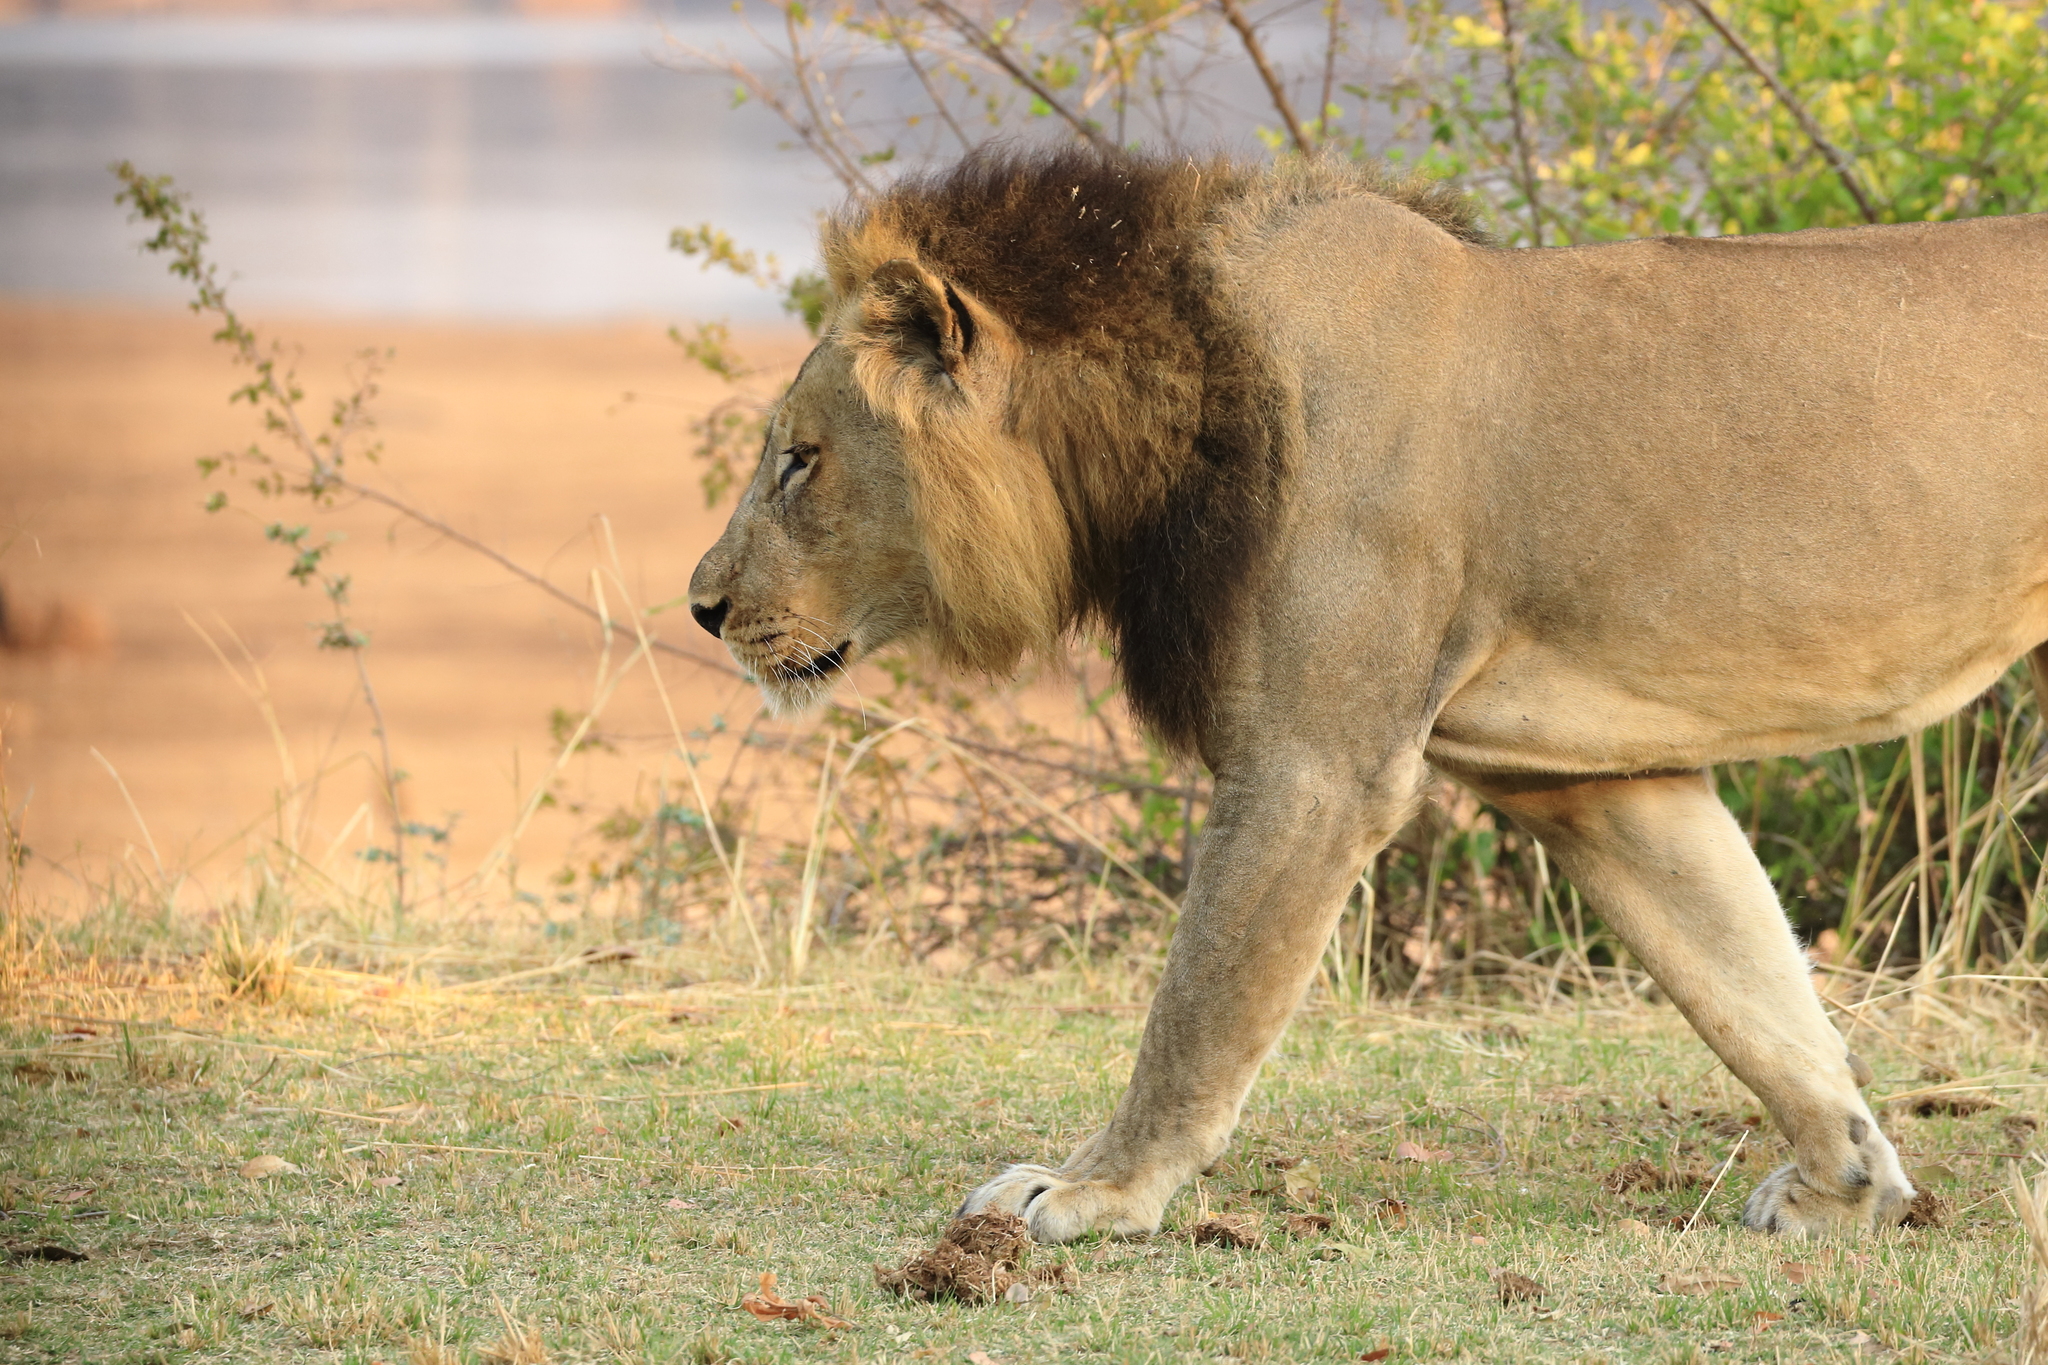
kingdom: Animalia
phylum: Chordata
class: Mammalia
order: Carnivora
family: Felidae
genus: Panthera
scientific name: Panthera leo
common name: Lion
